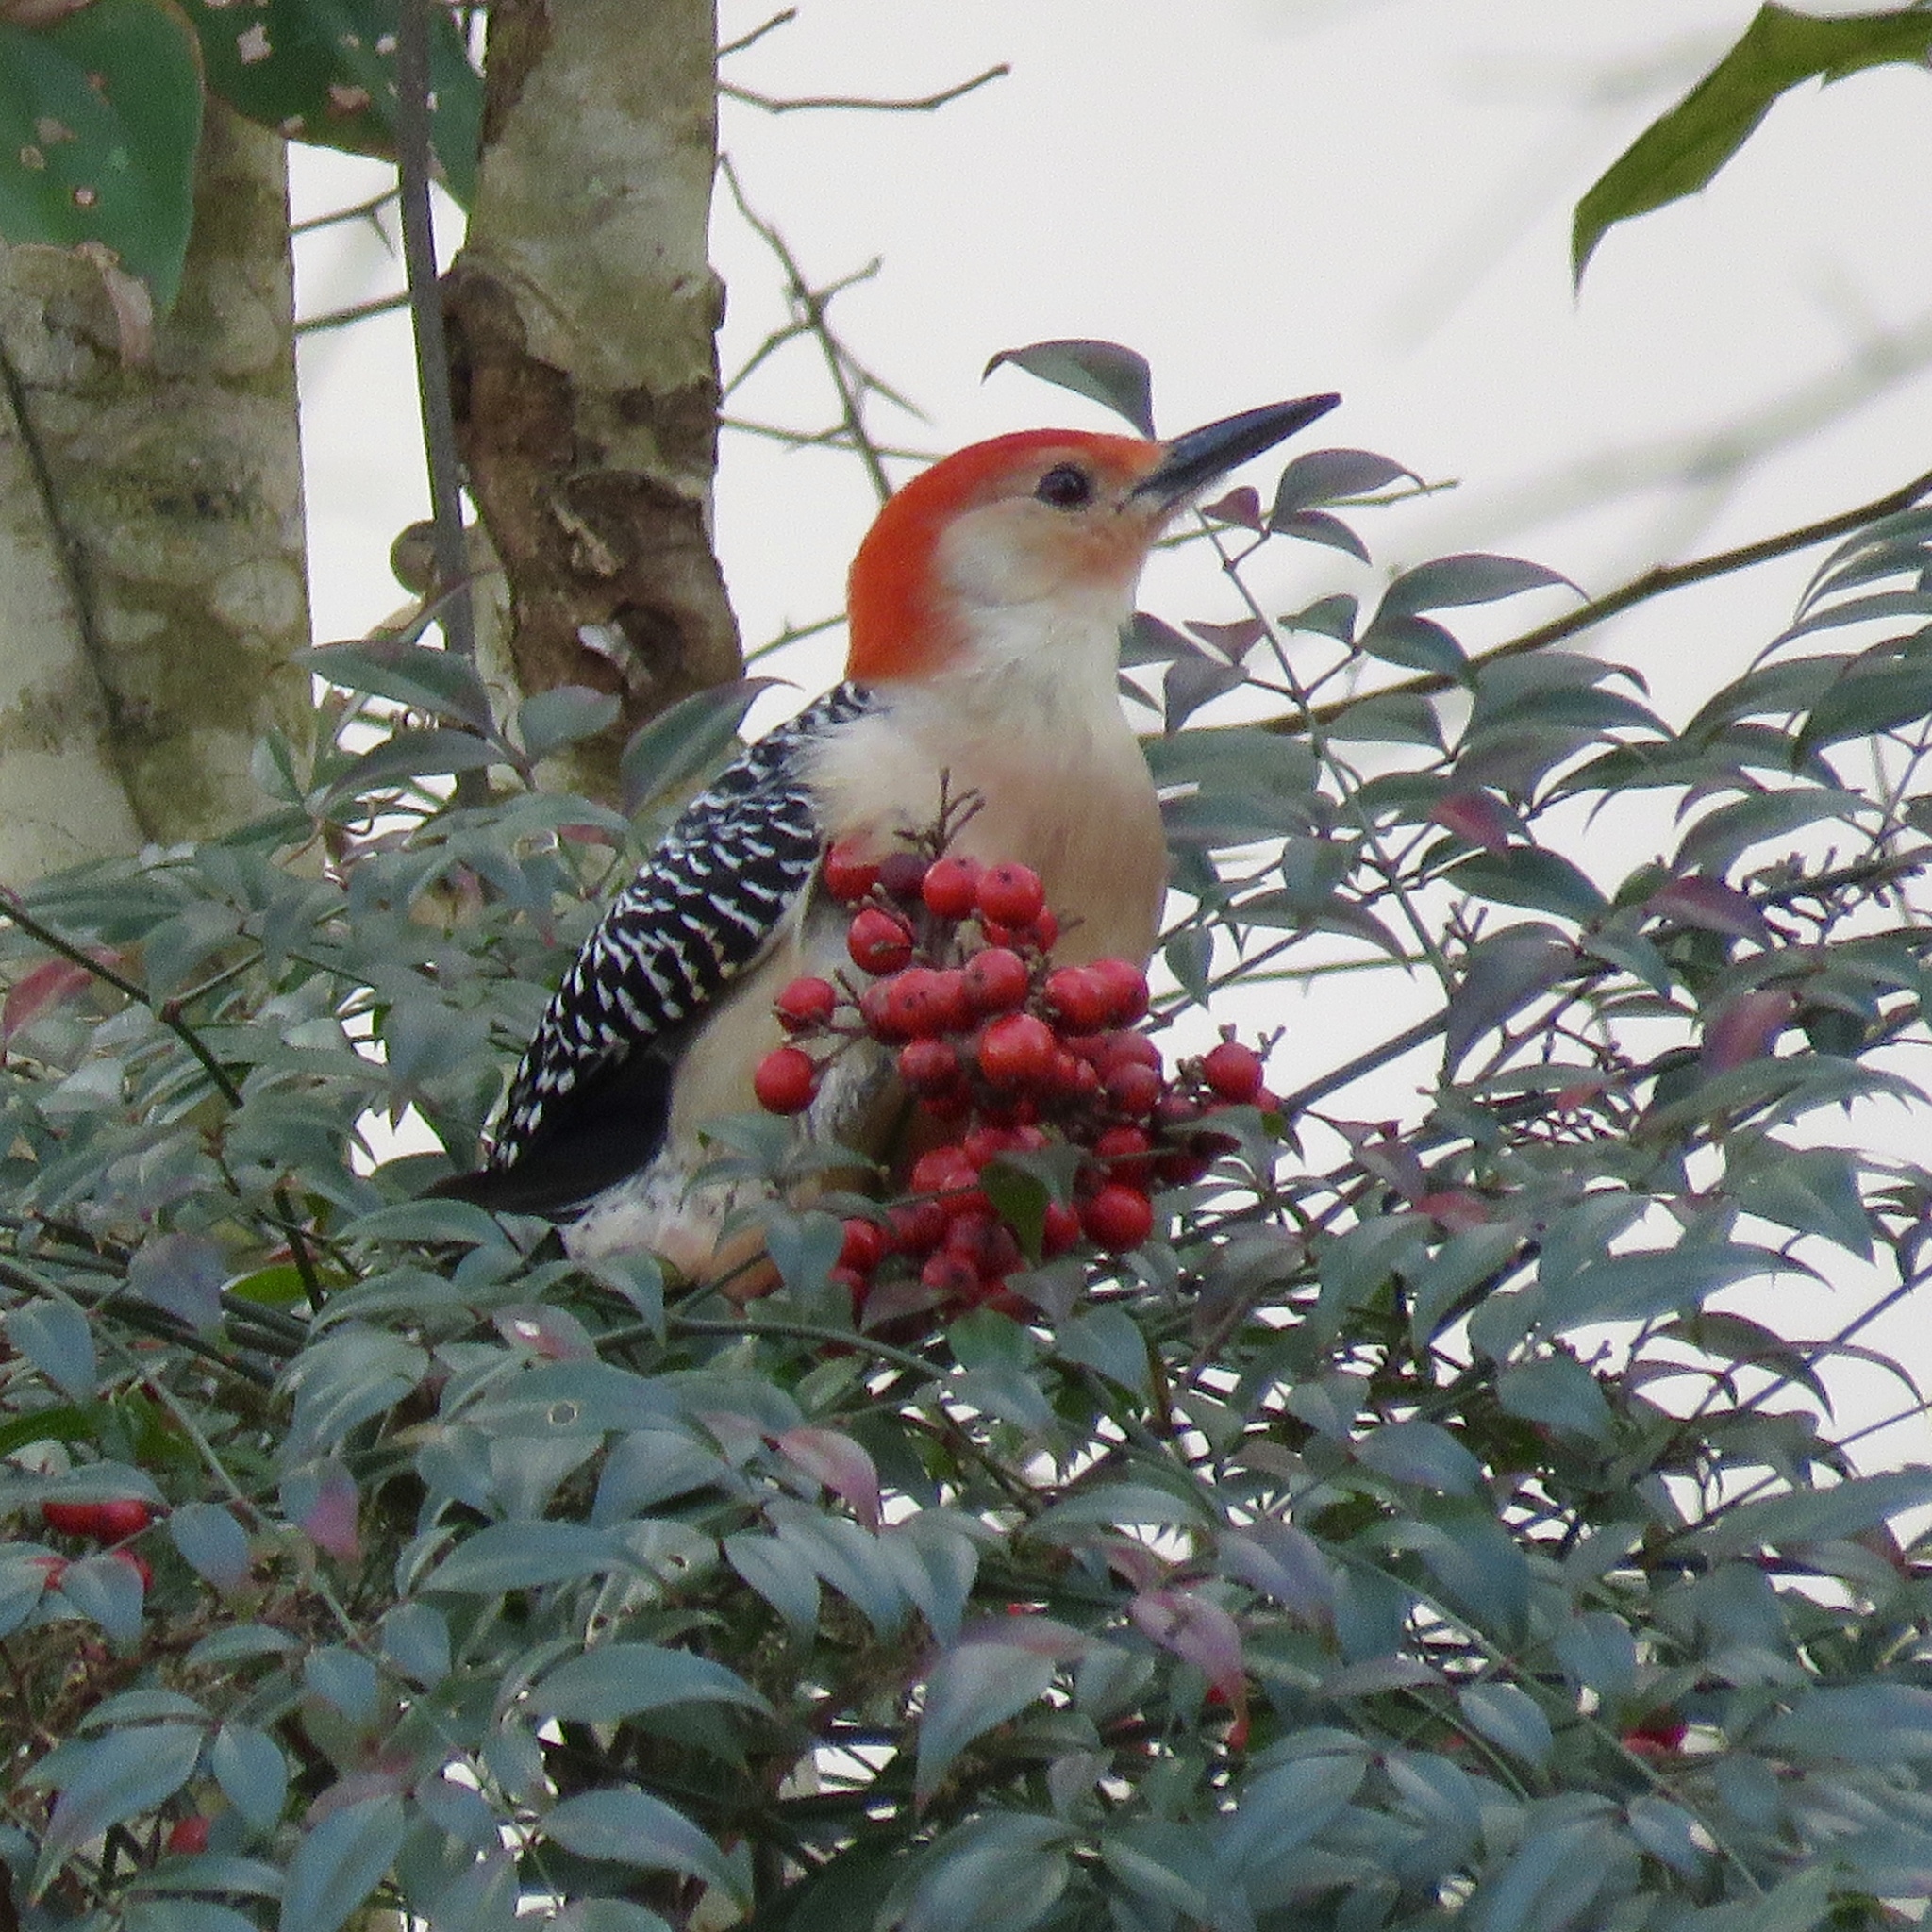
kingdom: Animalia
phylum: Chordata
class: Aves
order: Piciformes
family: Picidae
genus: Melanerpes
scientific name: Melanerpes carolinus
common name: Red-bellied woodpecker
